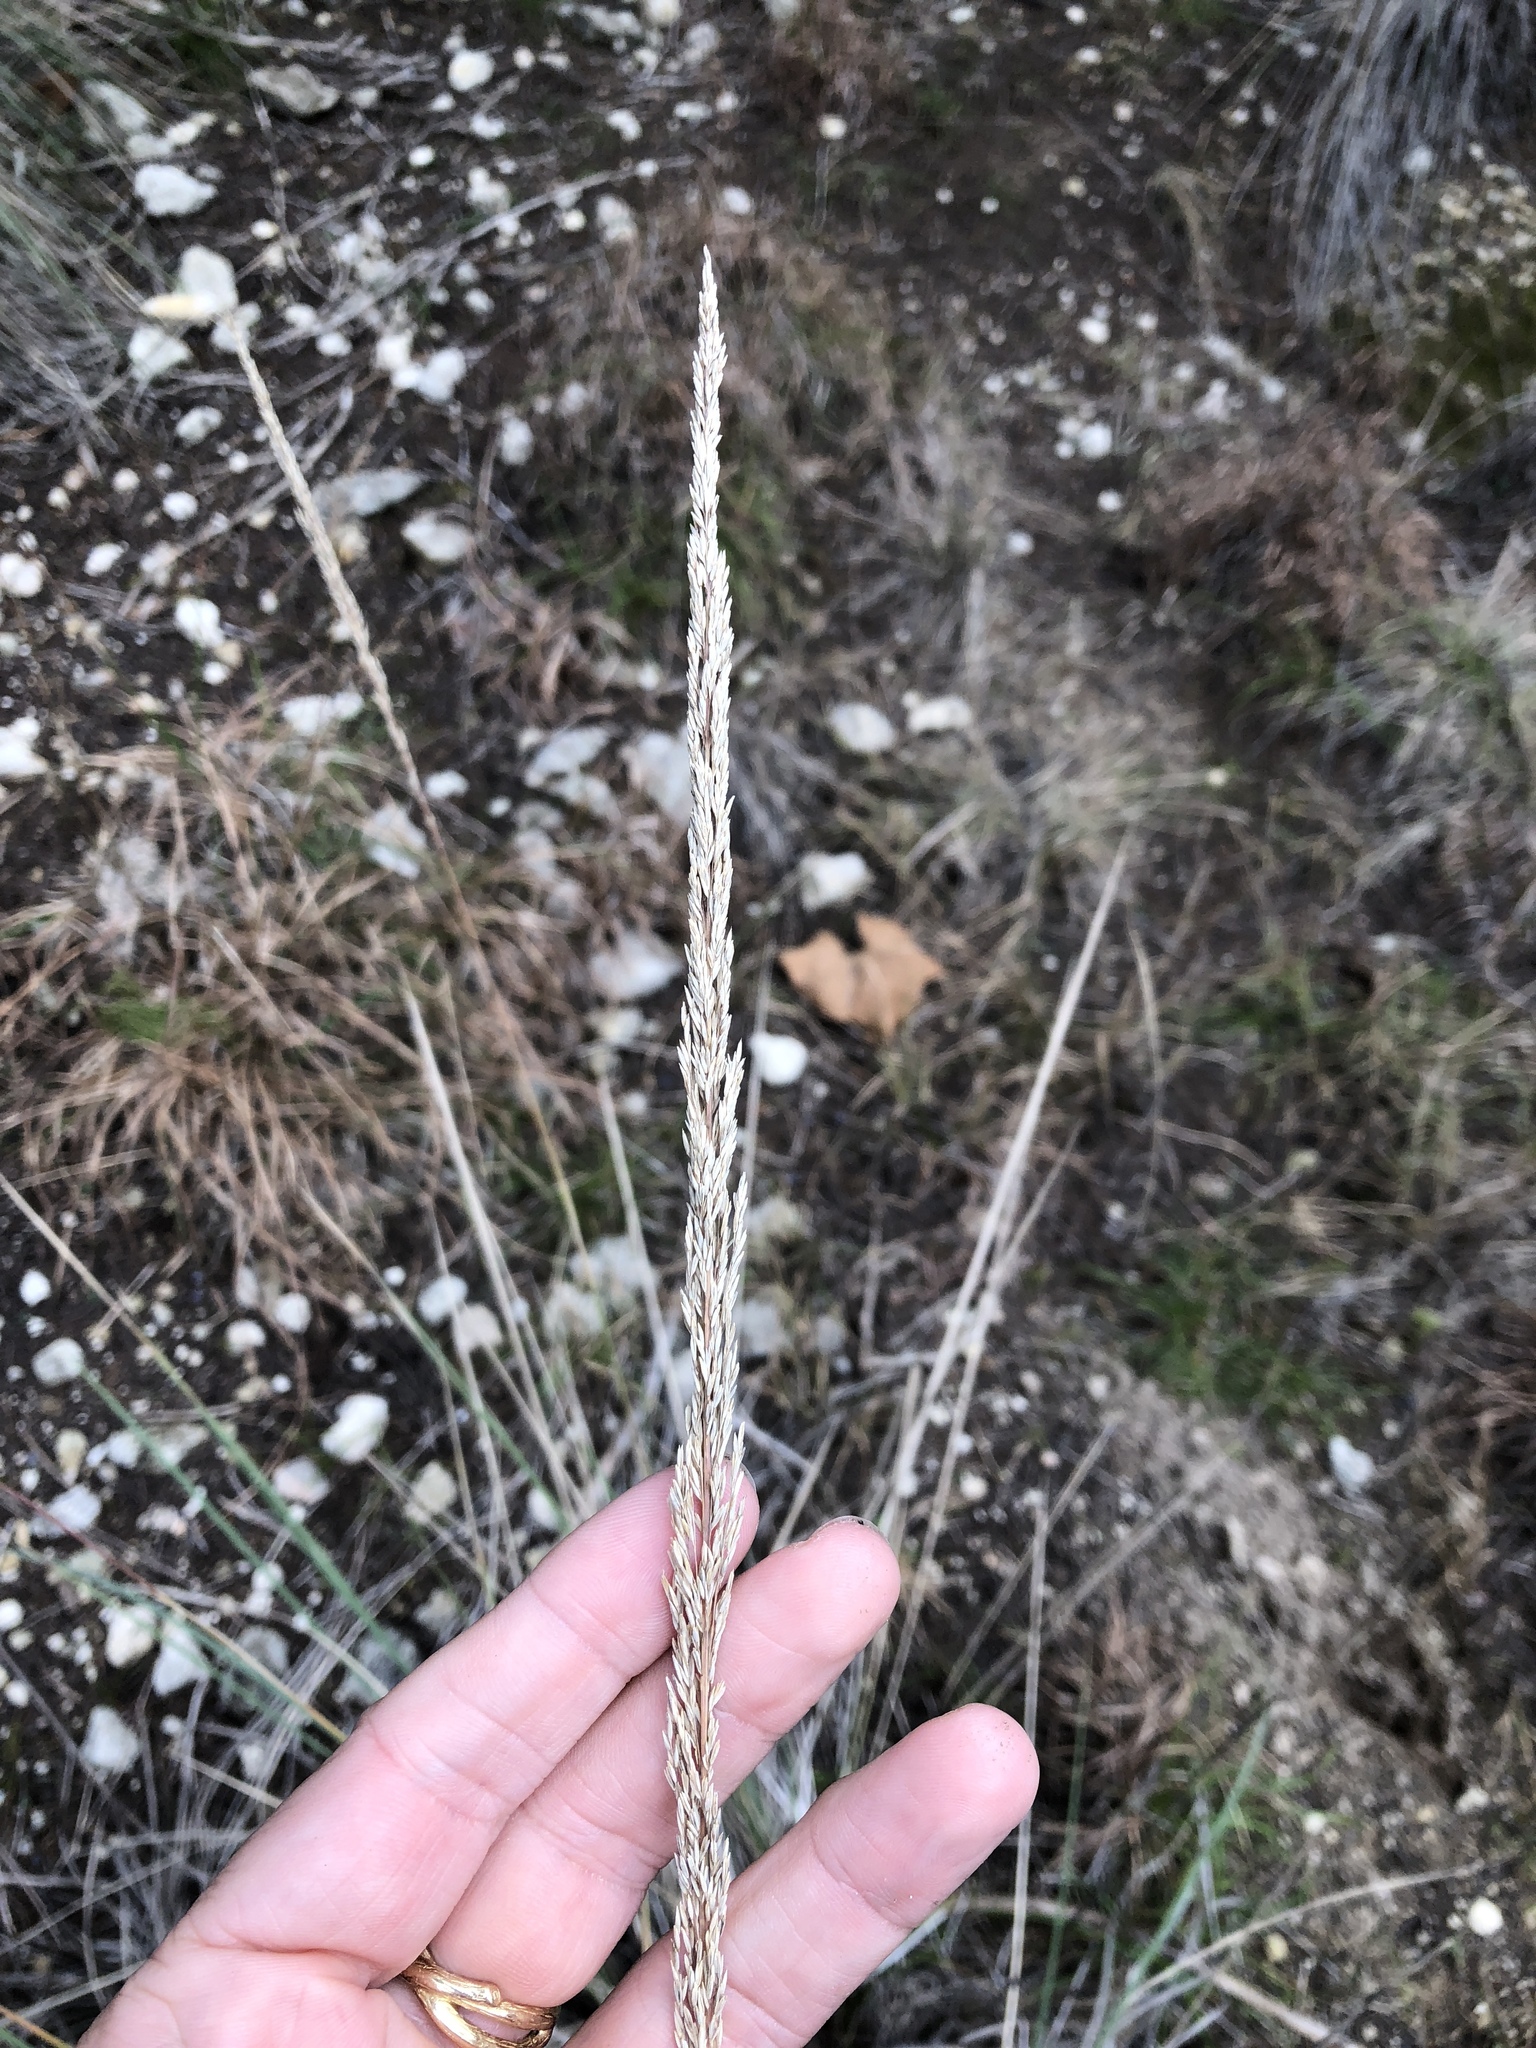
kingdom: Plantae
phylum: Tracheophyta
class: Liliopsida
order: Poales
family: Poaceae
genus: Muhlenbergia
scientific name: Muhlenbergia lindheimeri
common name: Lindheimer's muhly
